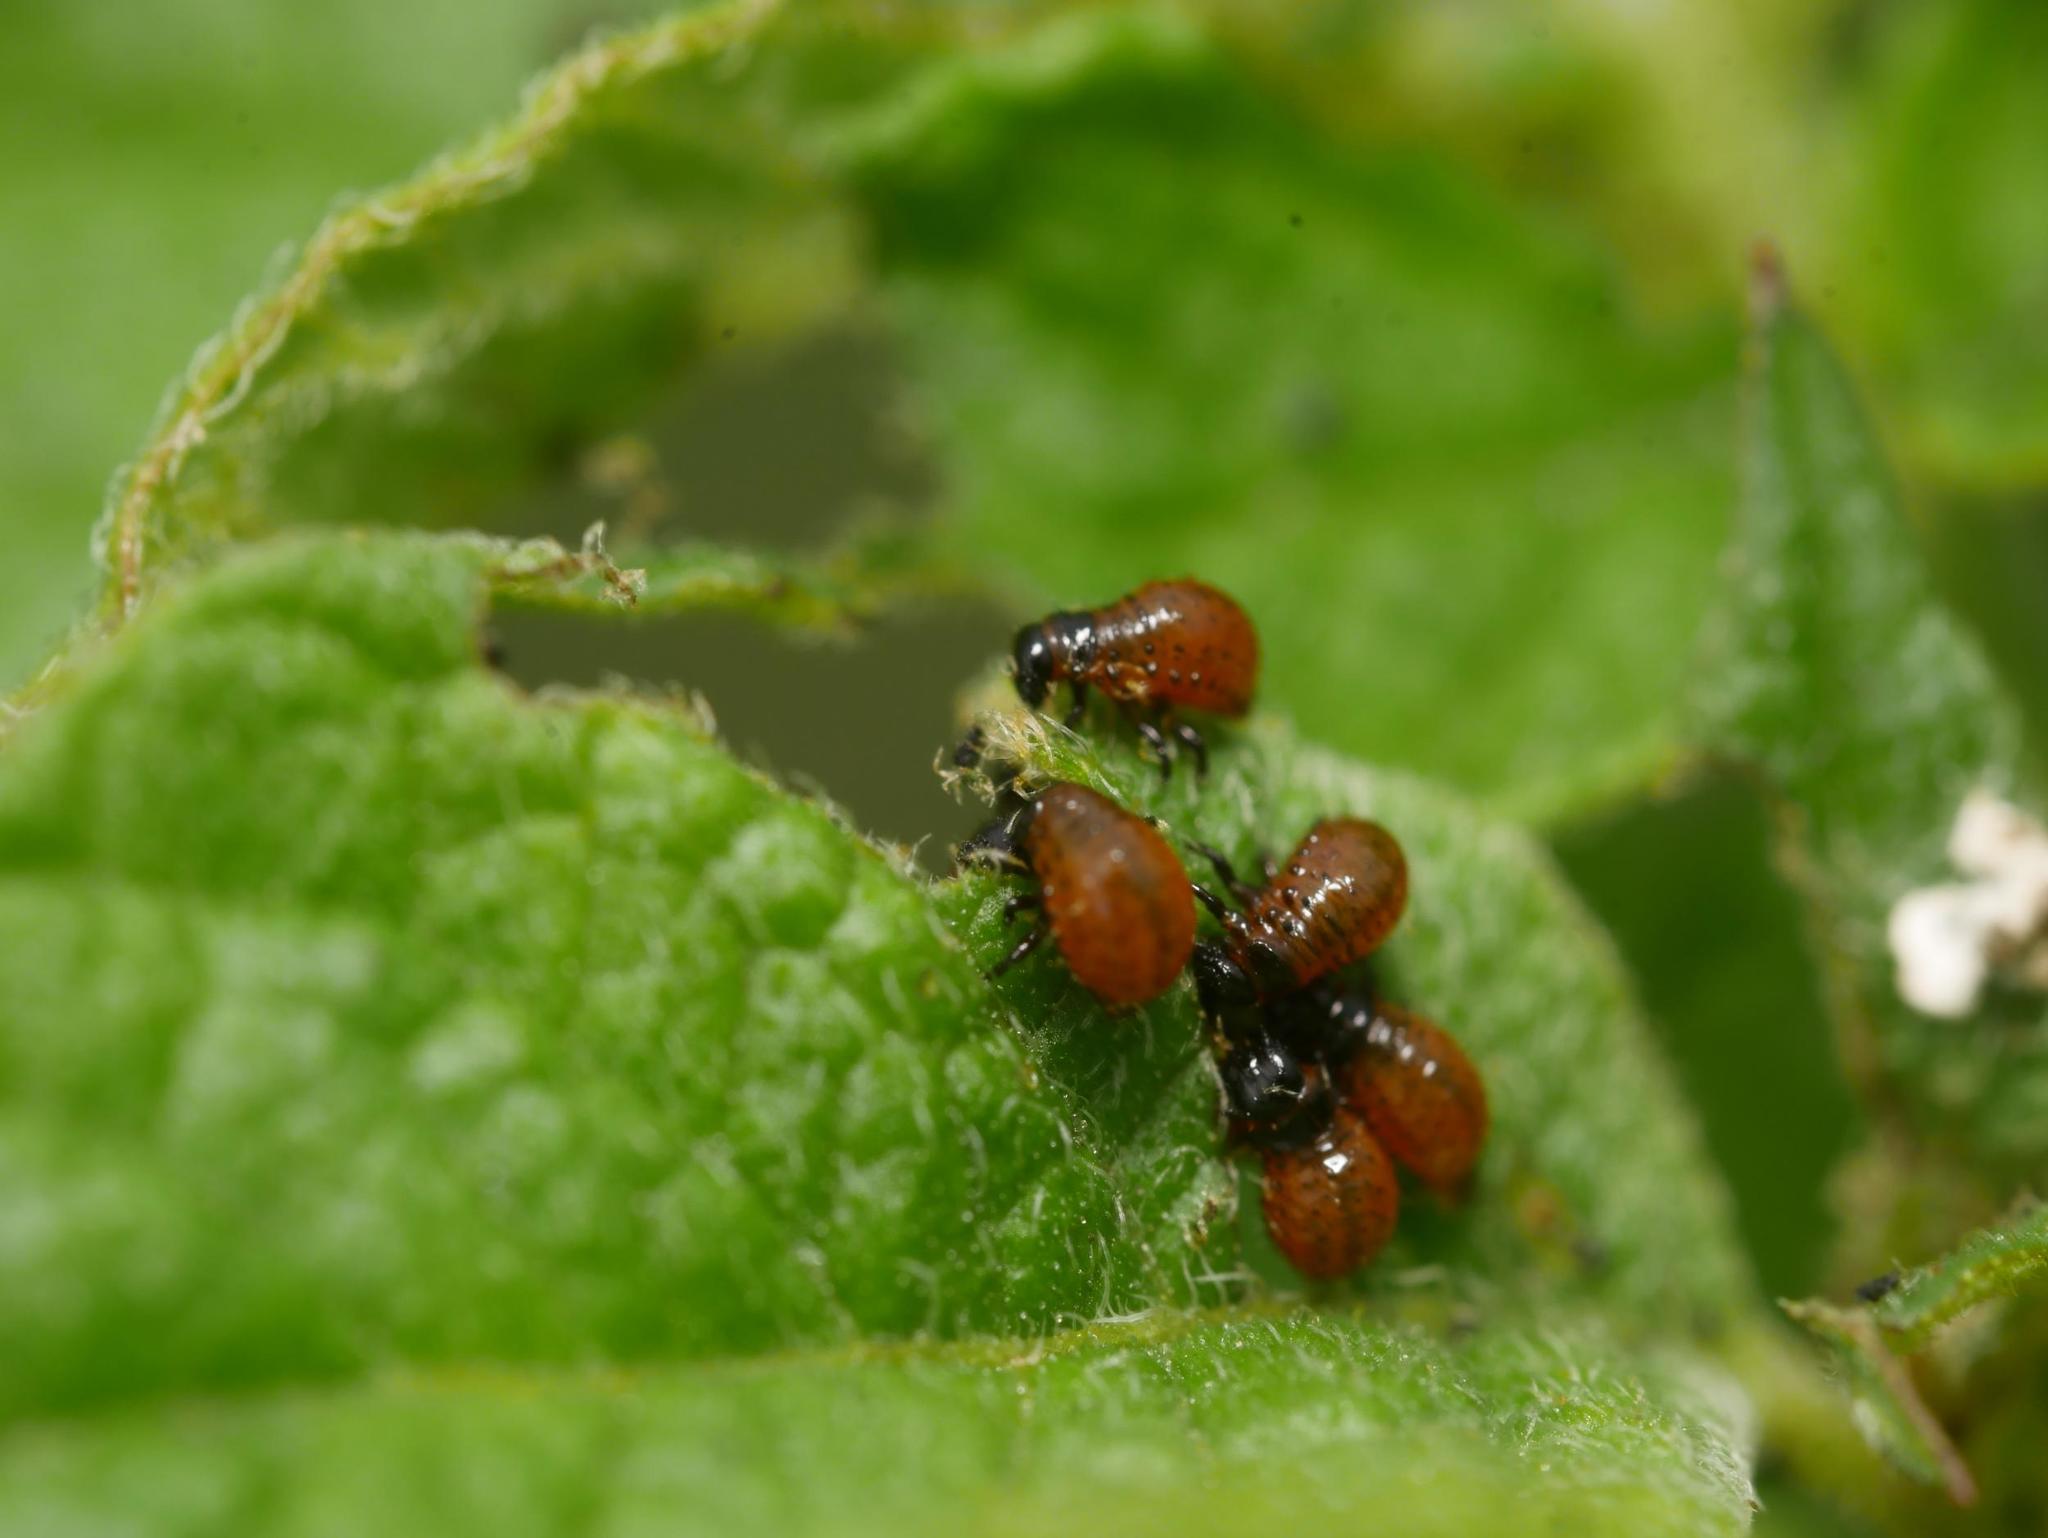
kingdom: Animalia
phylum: Arthropoda
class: Insecta
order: Coleoptera
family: Chrysomelidae
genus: Leptinotarsa
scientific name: Leptinotarsa decemlineata
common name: Colorado potato beetle
